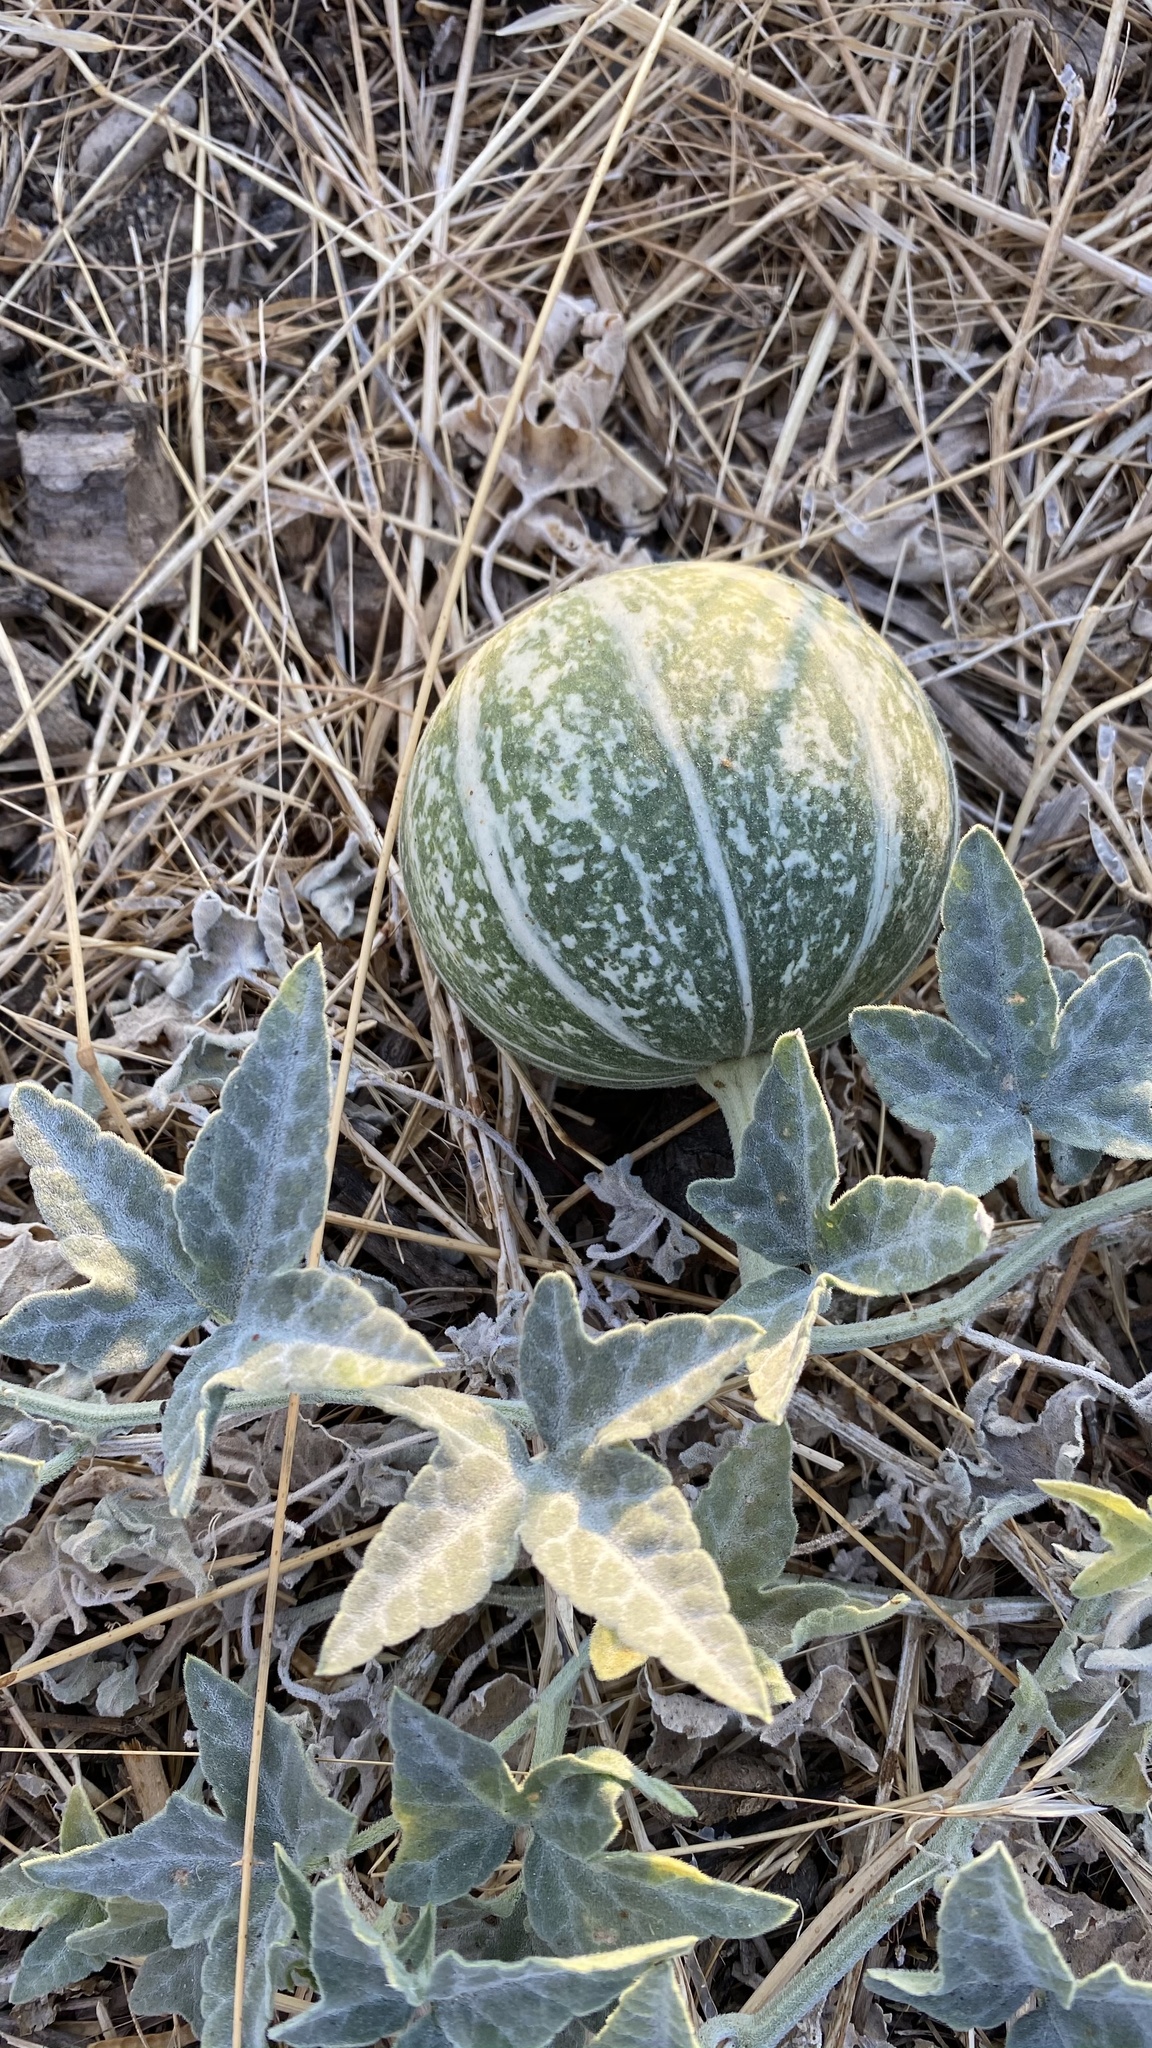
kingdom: Plantae
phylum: Tracheophyta
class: Magnoliopsida
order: Cucurbitales
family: Cucurbitaceae
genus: Cucurbita
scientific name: Cucurbita palmata
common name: Coyote-melon
